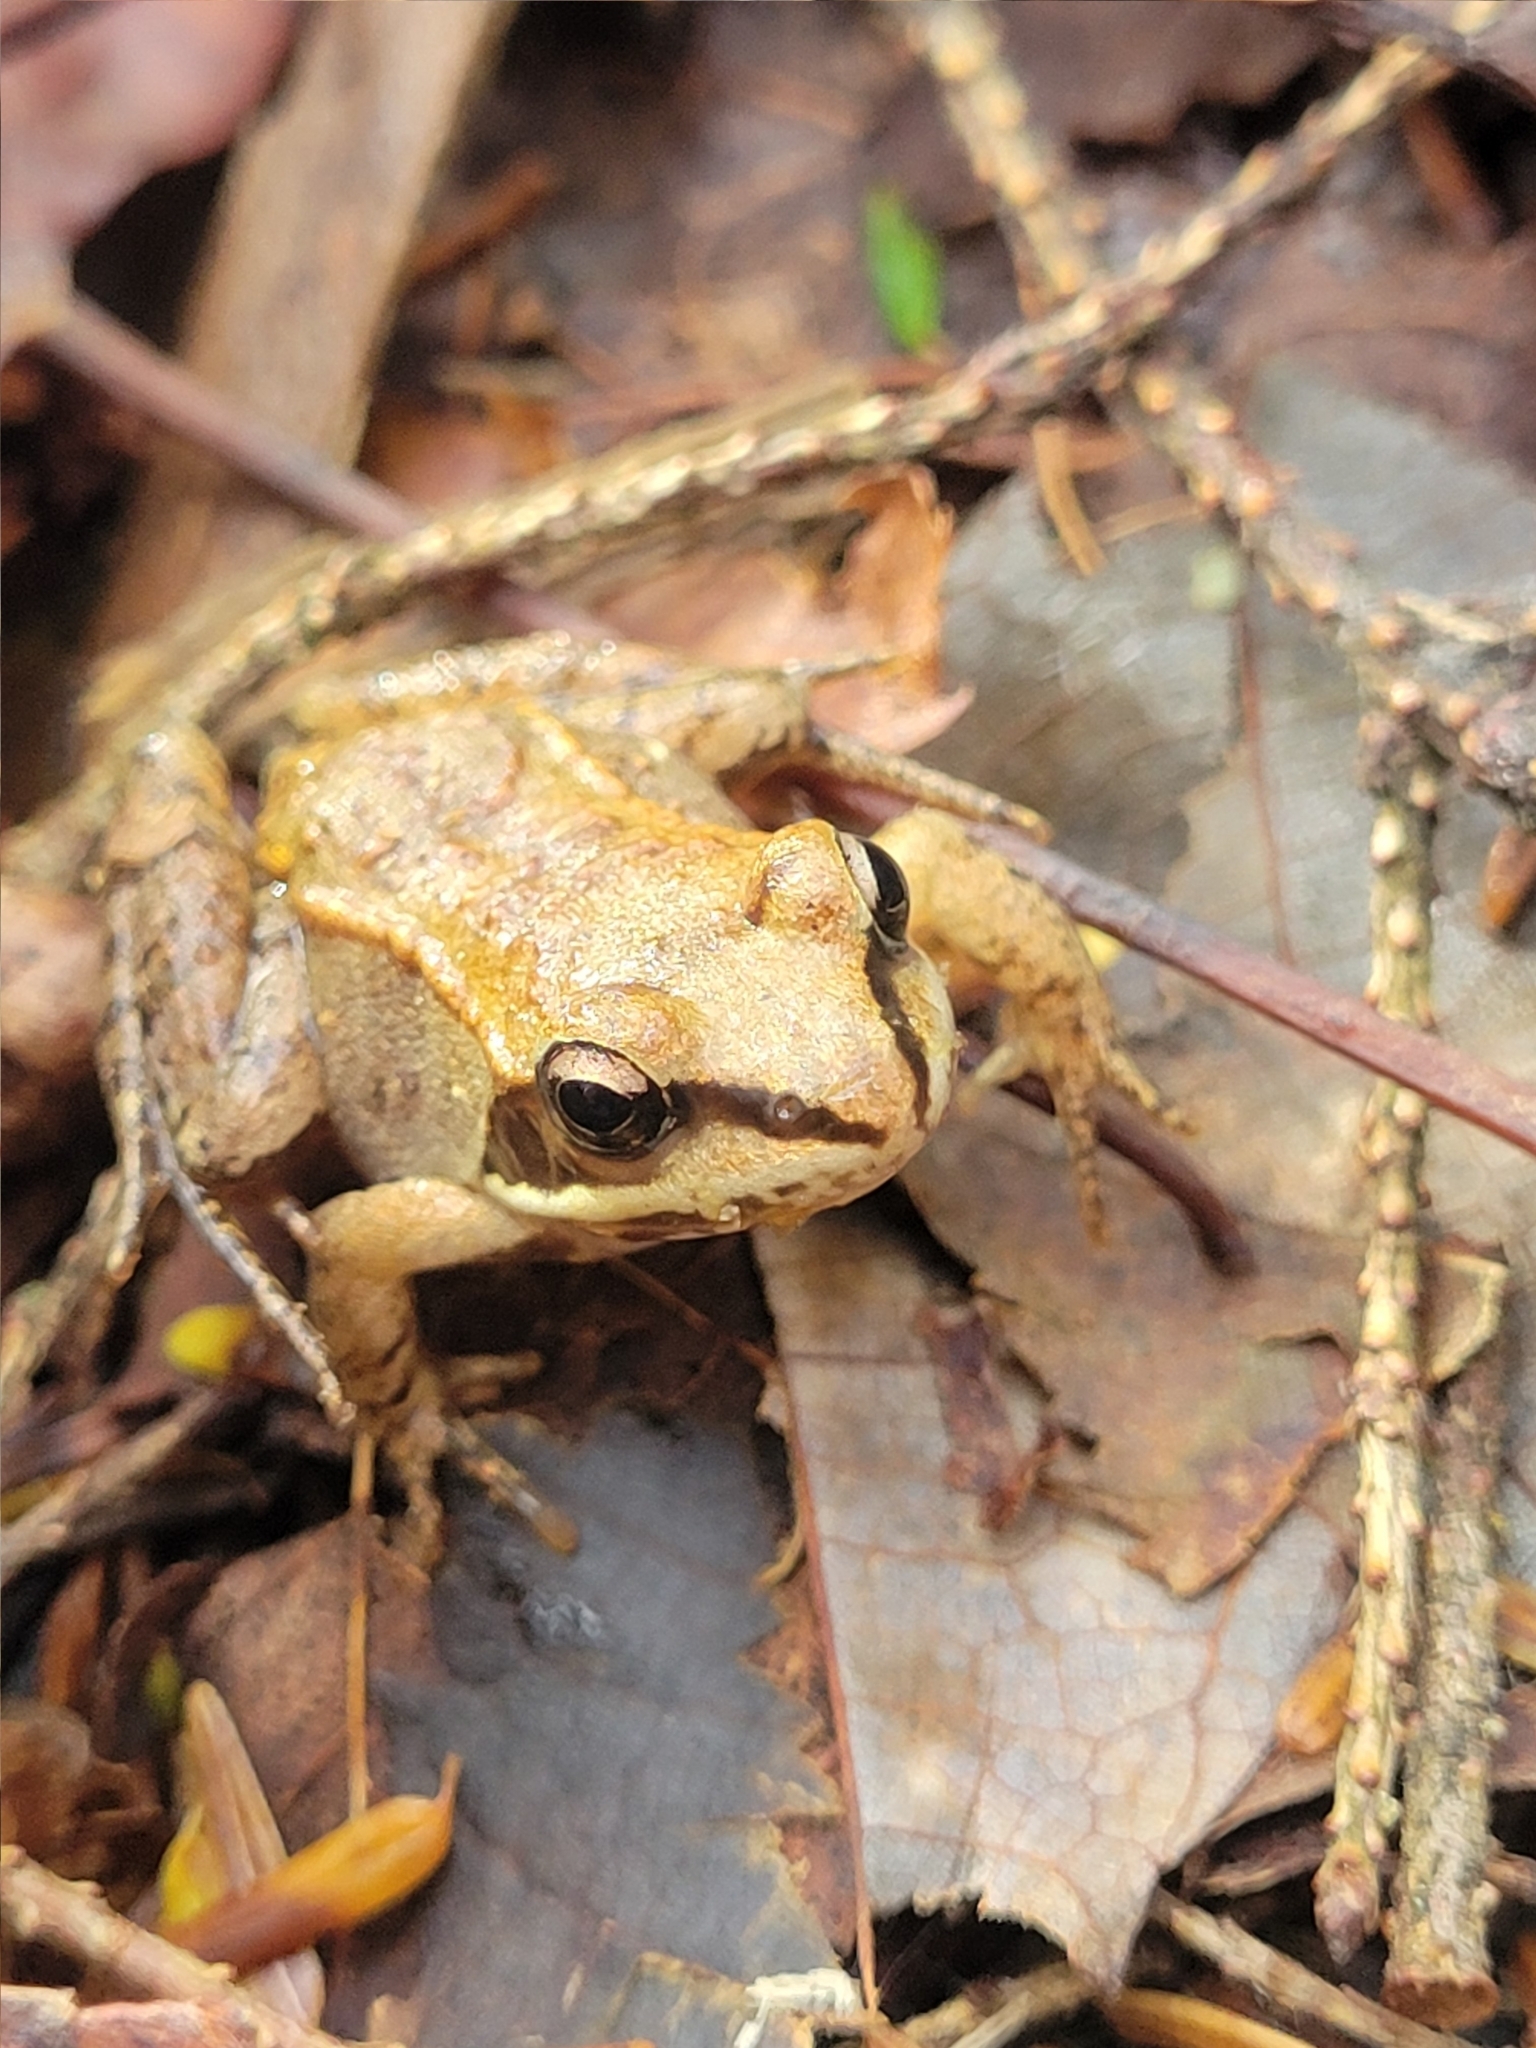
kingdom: Animalia
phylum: Chordata
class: Amphibia
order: Anura
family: Ranidae
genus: Lithobates
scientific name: Lithobates sylvaticus
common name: Wood frog
